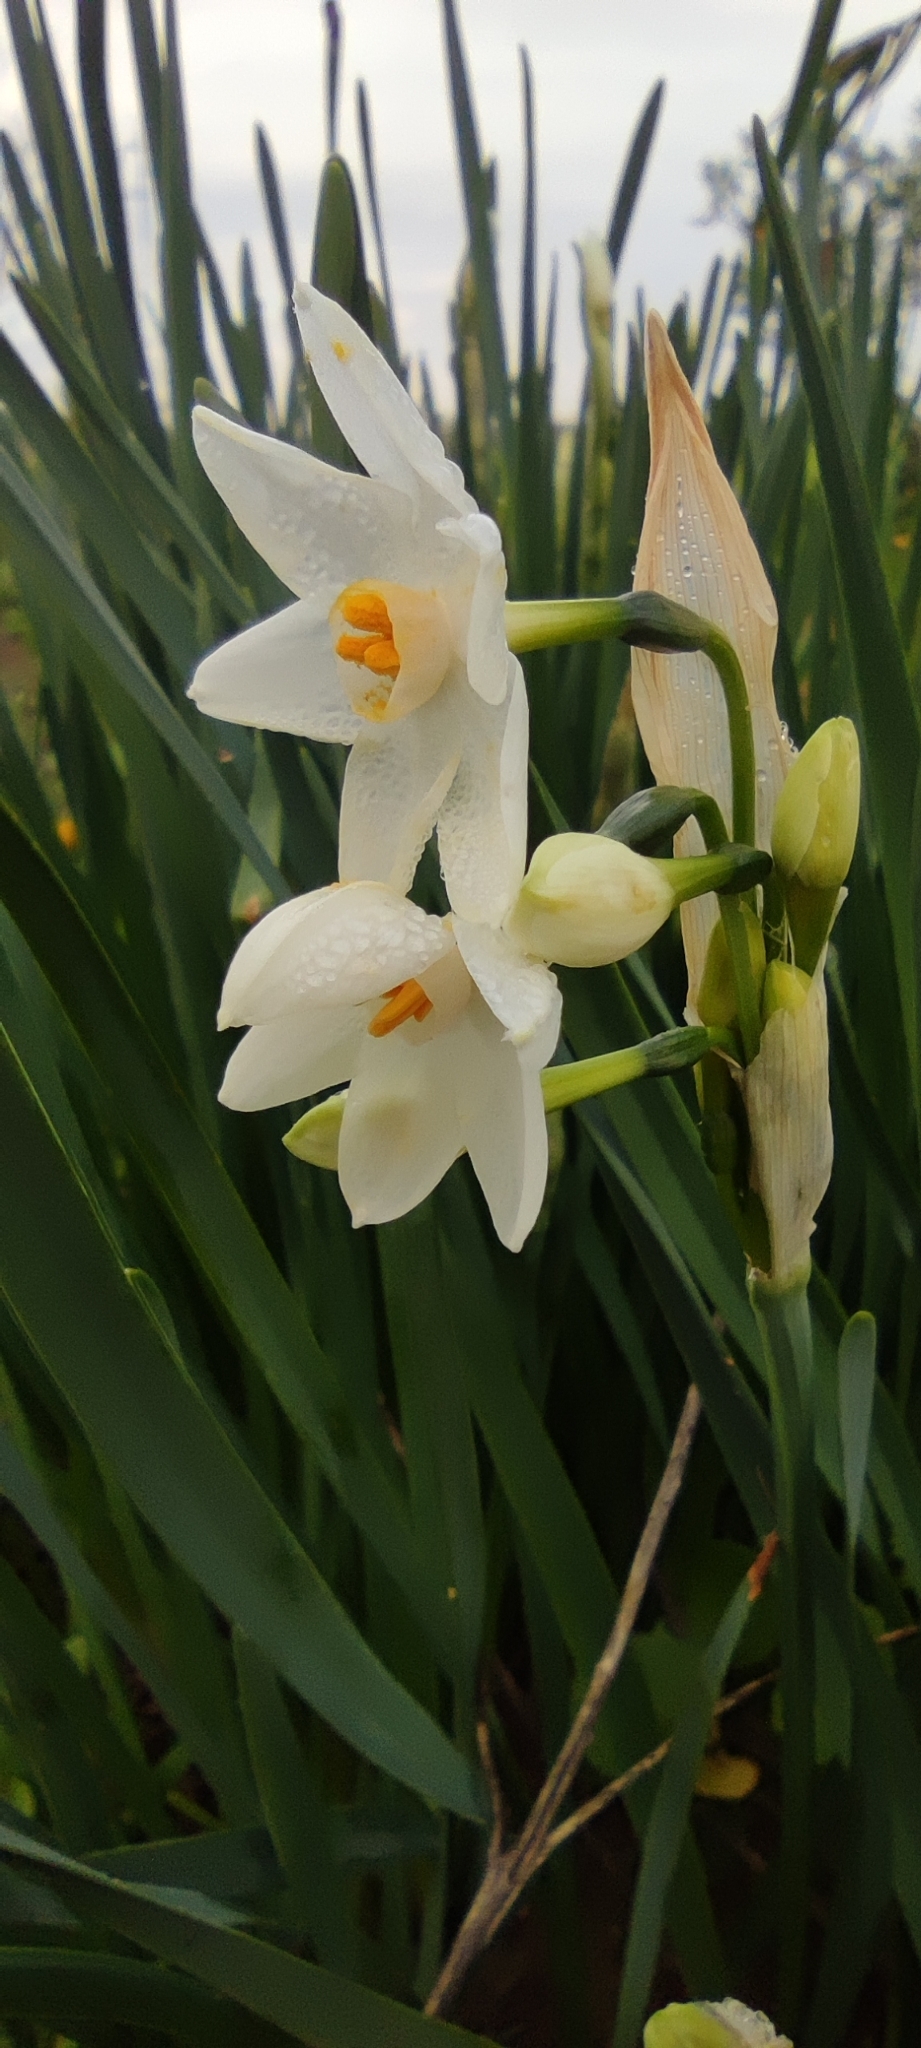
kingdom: Plantae
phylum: Tracheophyta
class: Liliopsida
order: Asparagales
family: Amaryllidaceae
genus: Narcissus
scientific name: Narcissus papyraceus
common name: Paper-white daffodil
